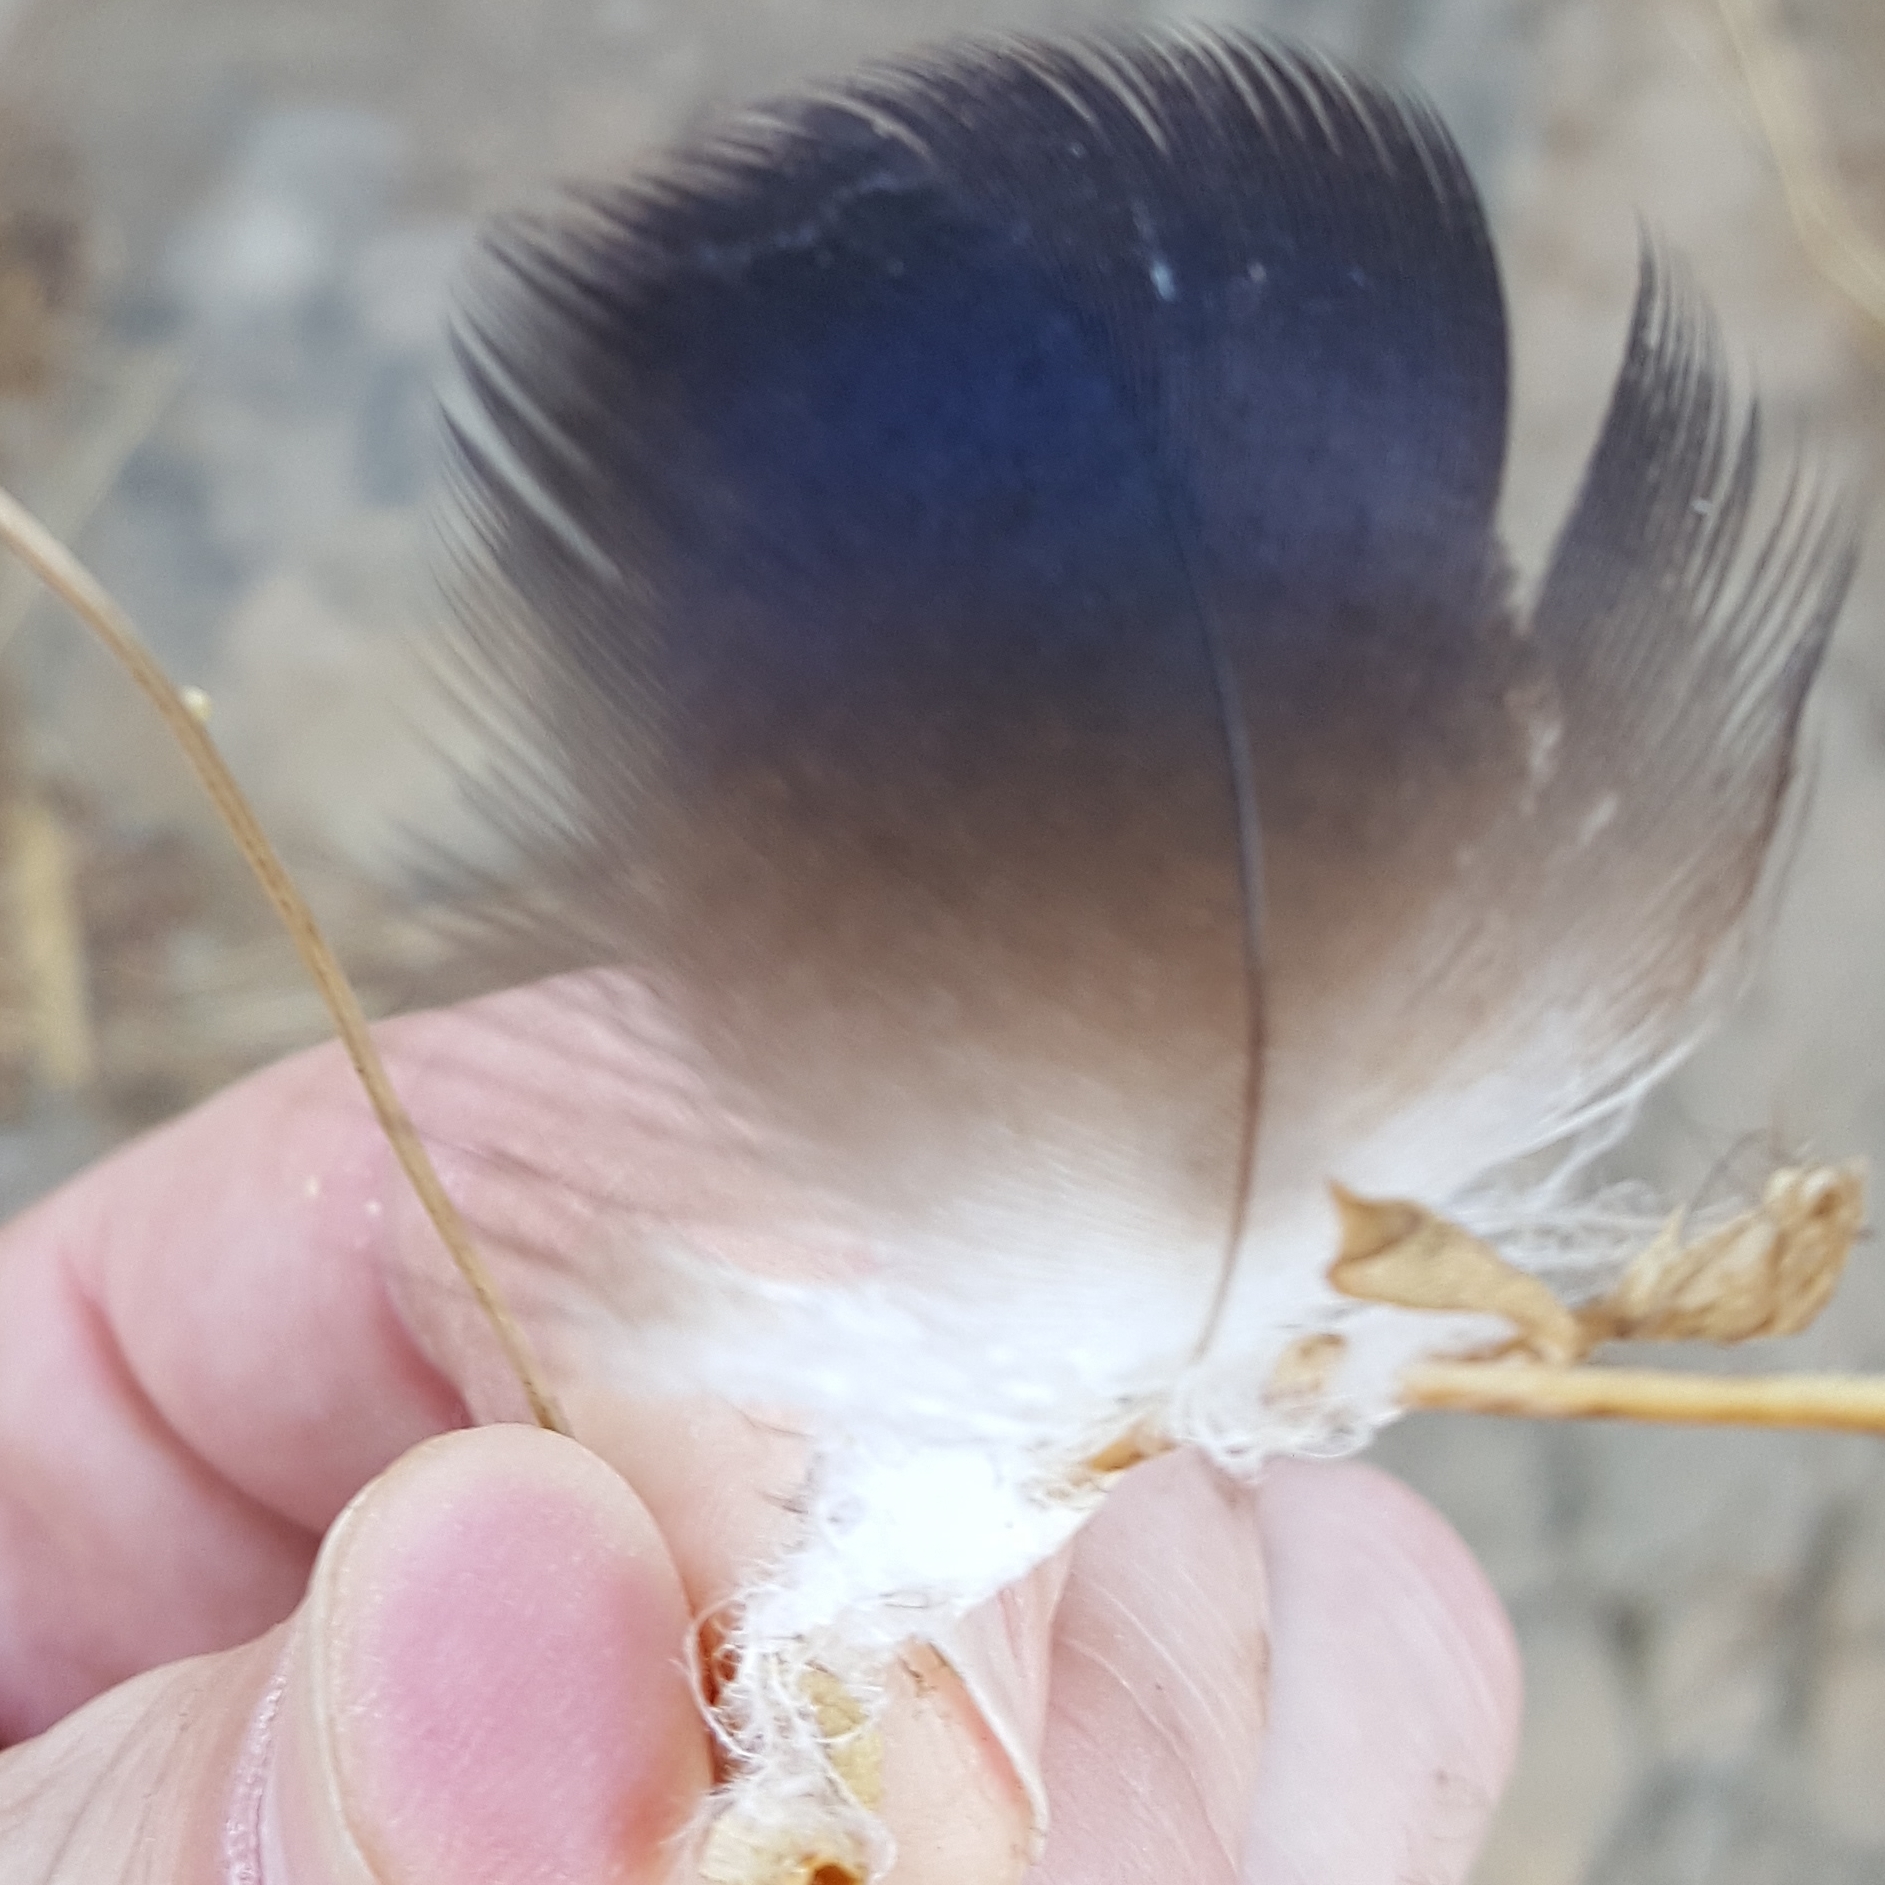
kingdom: Animalia
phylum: Chordata
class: Aves
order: Accipitriformes
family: Cathartidae
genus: Cathartes
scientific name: Cathartes aura
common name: Turkey vulture
